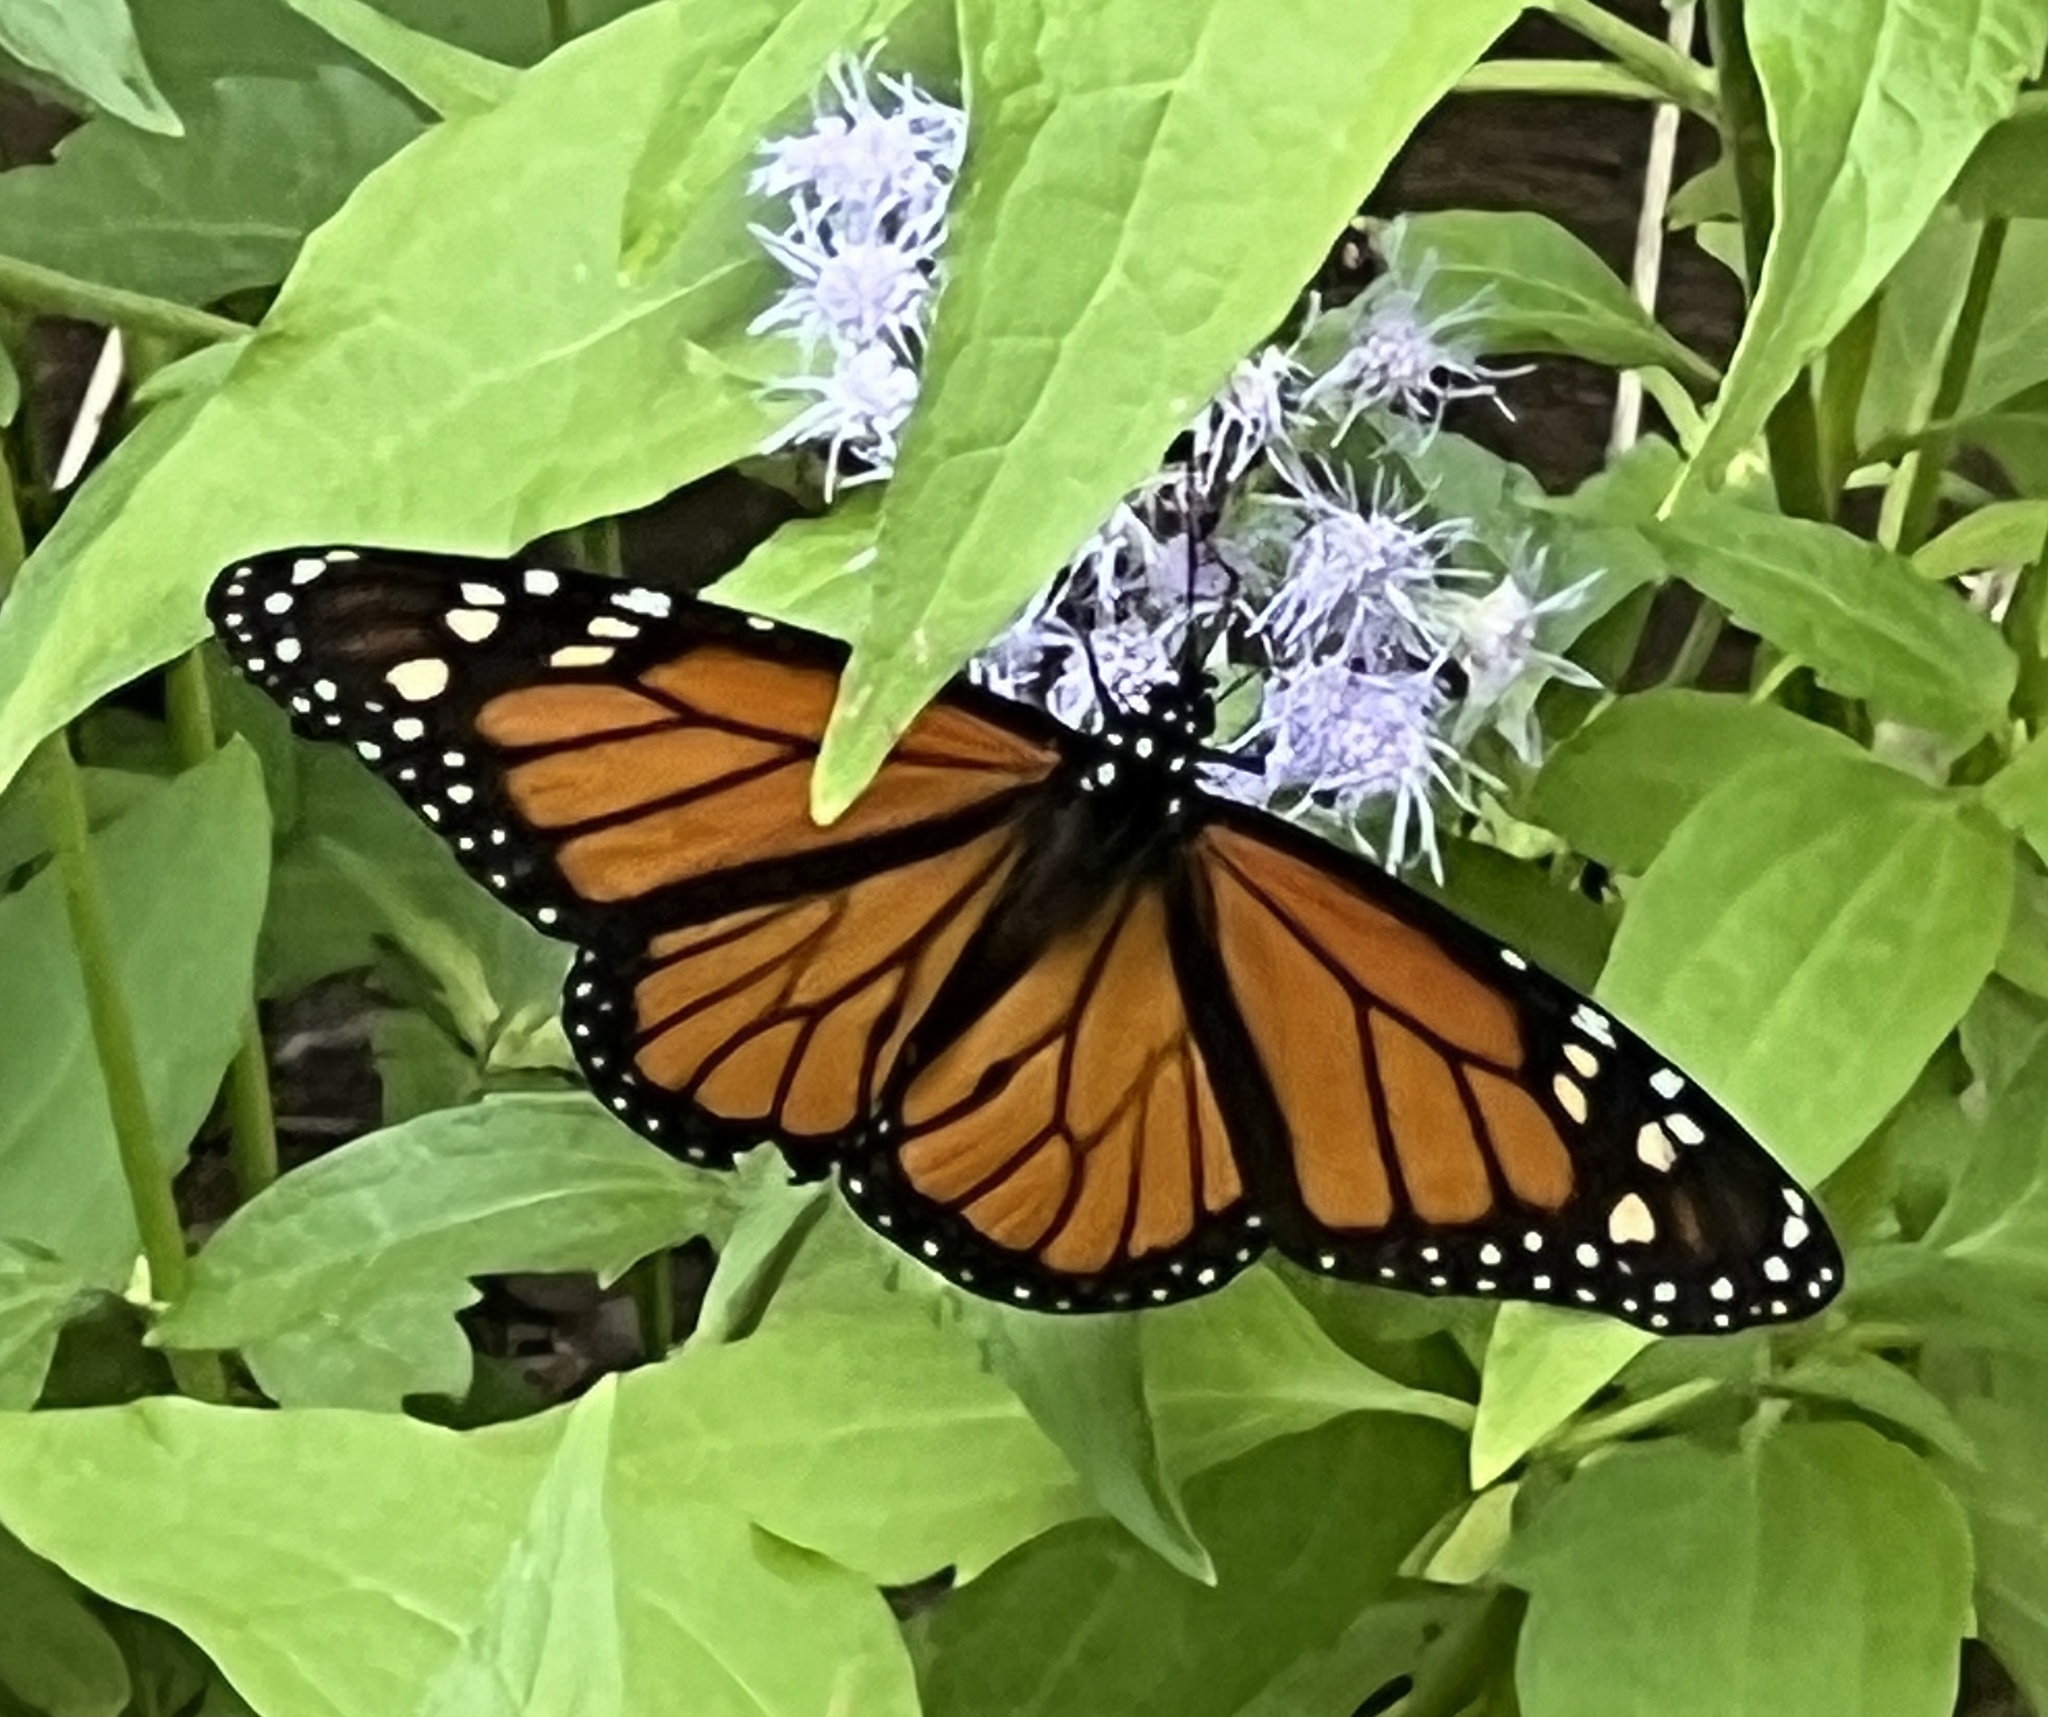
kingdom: Animalia
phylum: Arthropoda
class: Insecta
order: Lepidoptera
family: Nymphalidae
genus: Danaus
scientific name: Danaus plexippus
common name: Monarch
